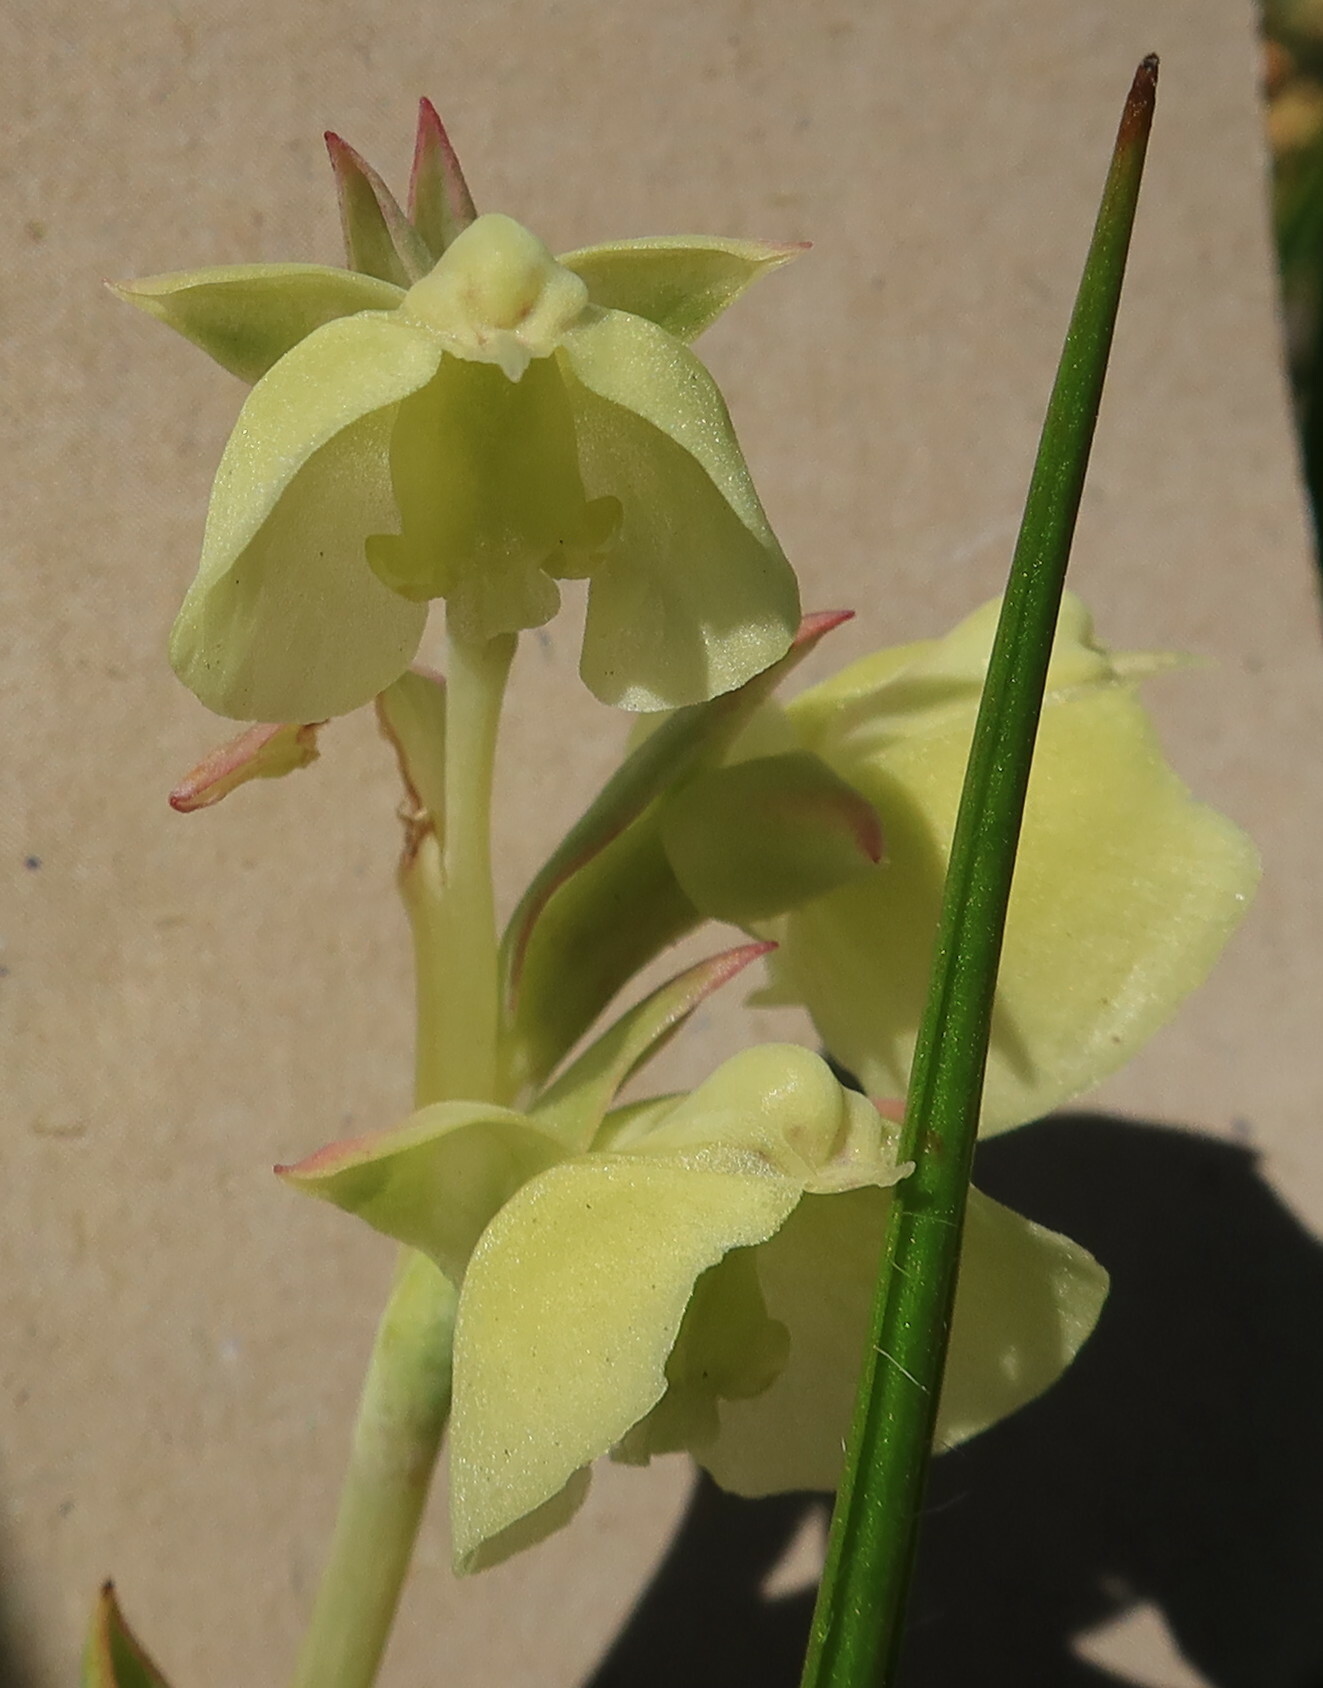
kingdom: Plantae
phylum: Tracheophyta
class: Liliopsida
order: Asparagales
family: Orchidaceae
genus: Pterygodium
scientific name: Pterygodium catholicum
